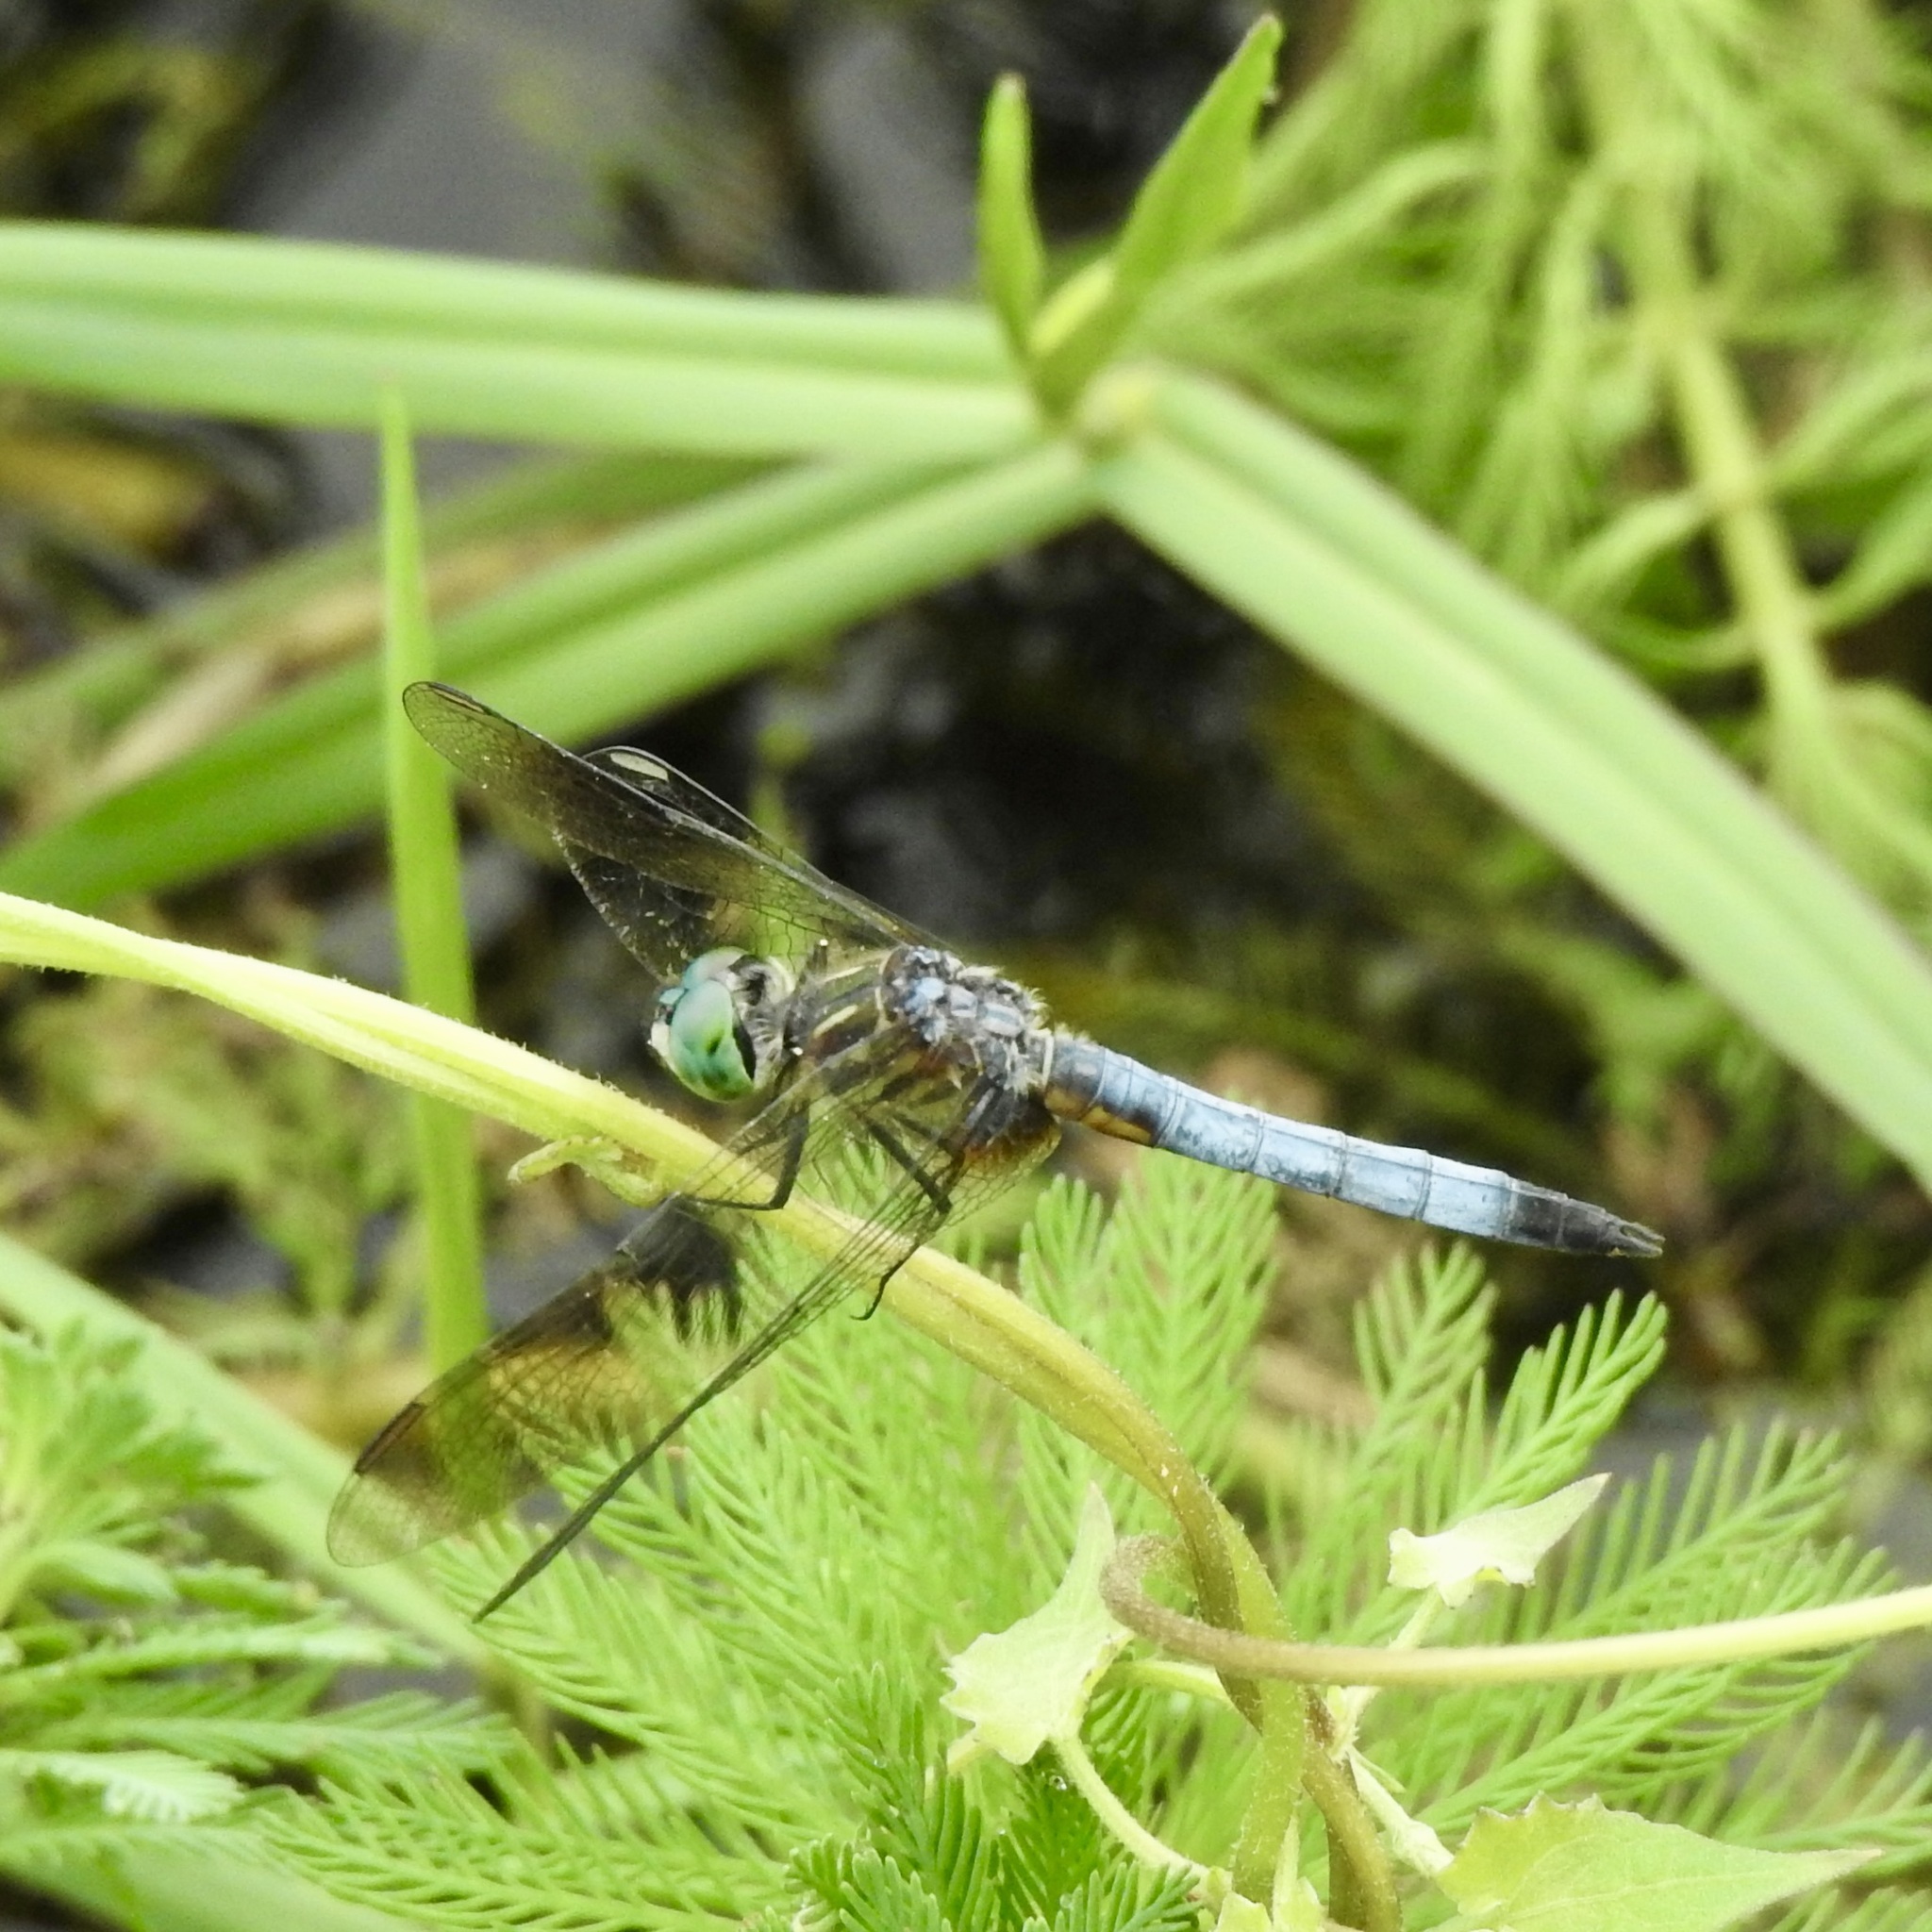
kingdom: Animalia
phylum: Arthropoda
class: Insecta
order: Odonata
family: Libellulidae
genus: Pachydiplax
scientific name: Pachydiplax longipennis
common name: Blue dasher
